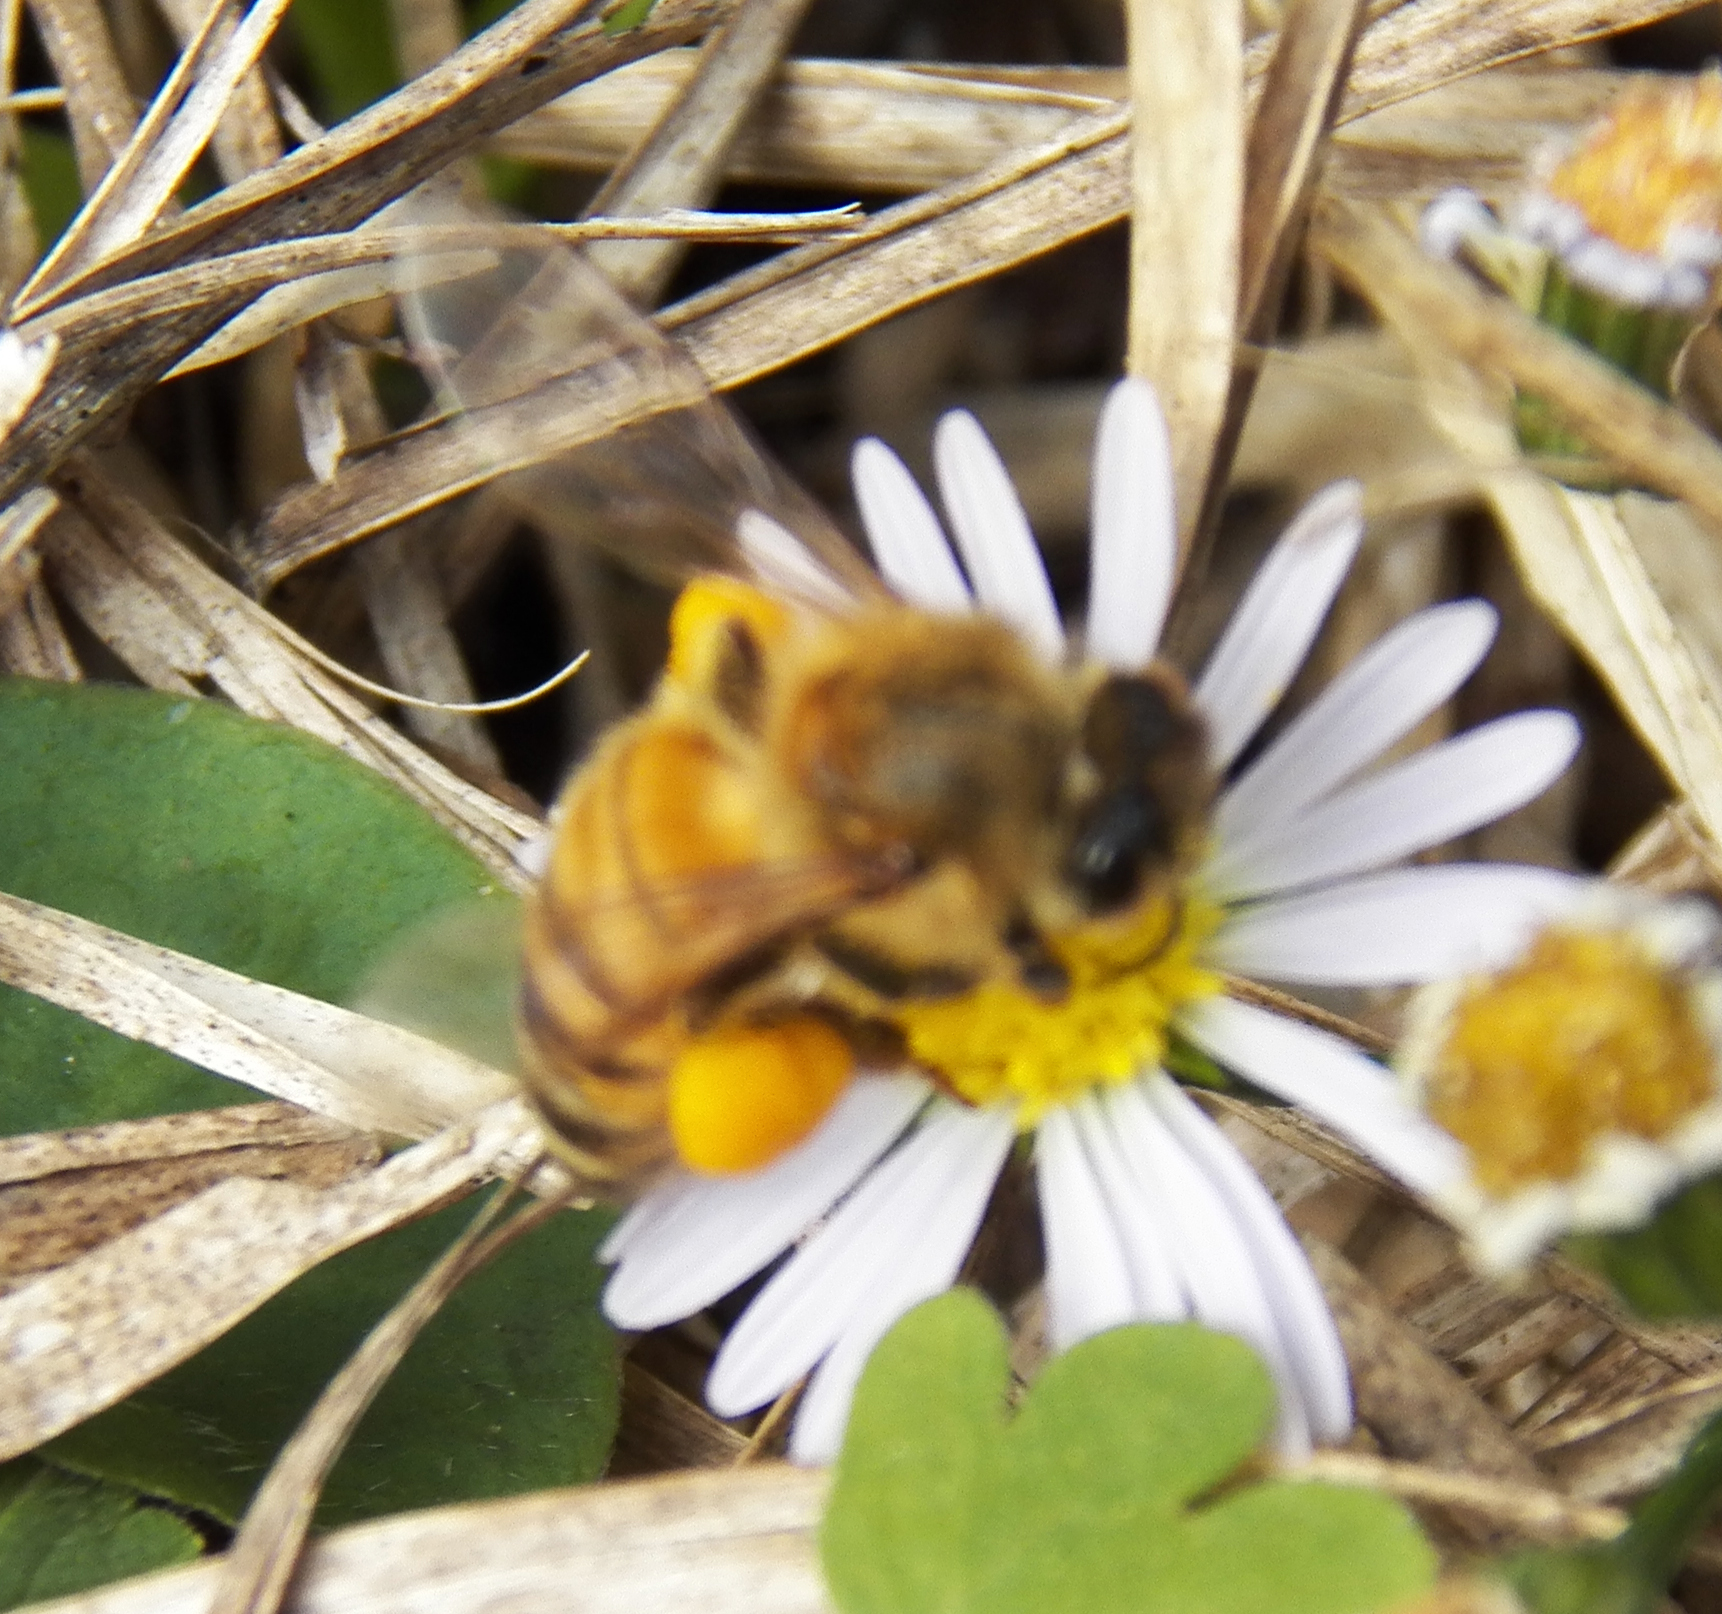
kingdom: Animalia
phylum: Arthropoda
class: Insecta
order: Hymenoptera
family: Apidae
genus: Apis
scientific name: Apis mellifera
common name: Honey bee
